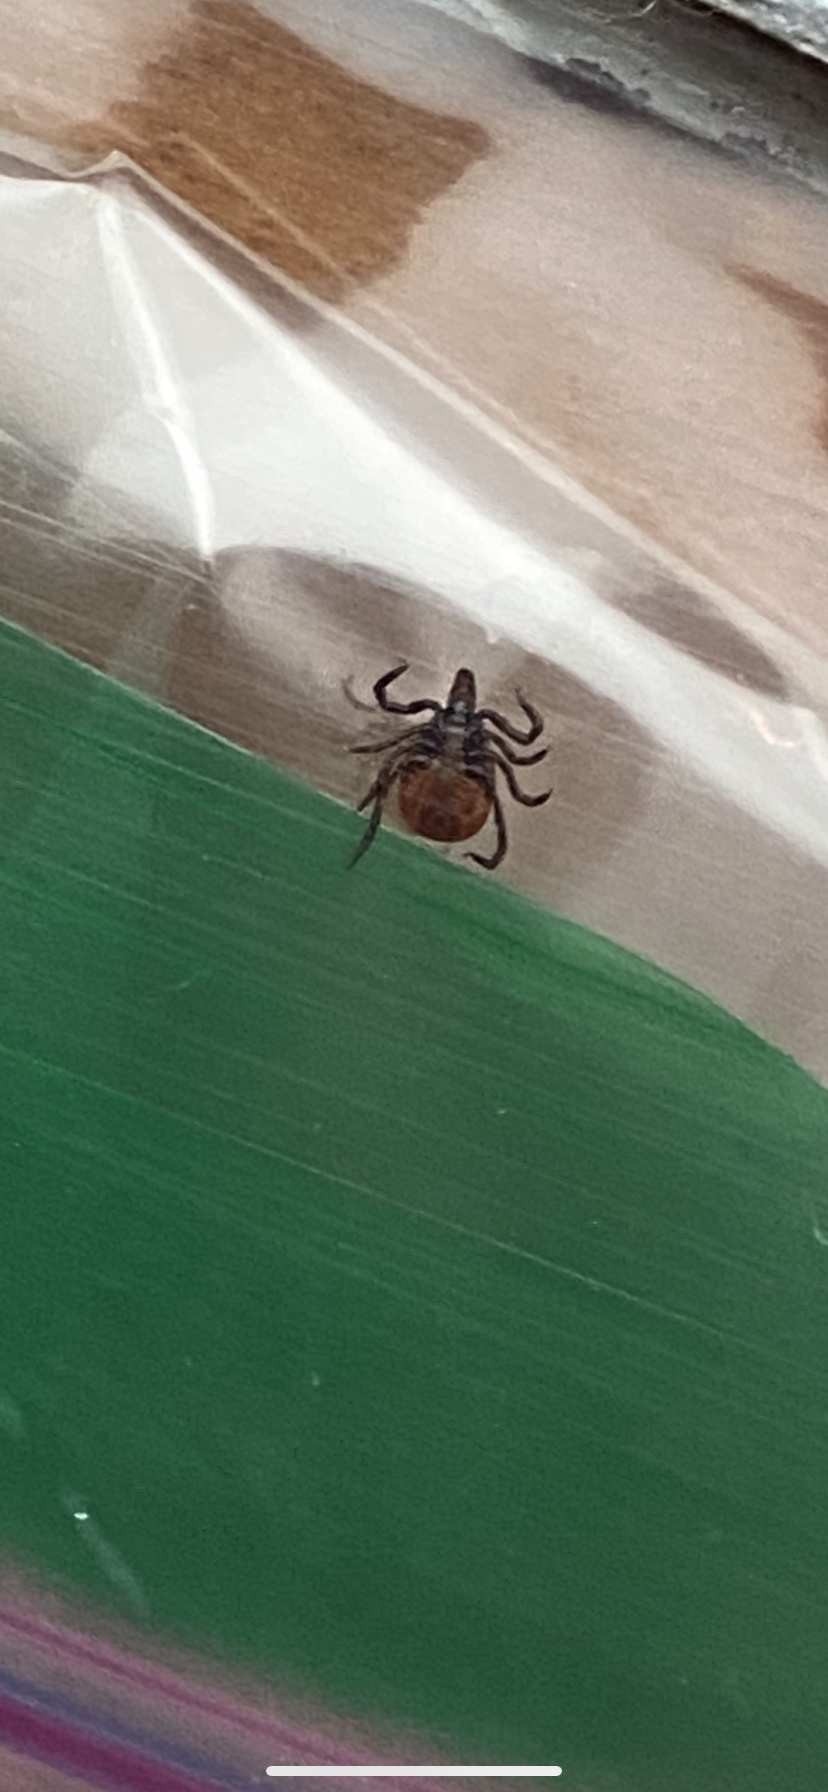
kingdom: Animalia
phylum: Arthropoda
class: Arachnida
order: Ixodida
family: Ixodidae
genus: Ixodes
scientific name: Ixodes scapularis
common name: Black legged tick
